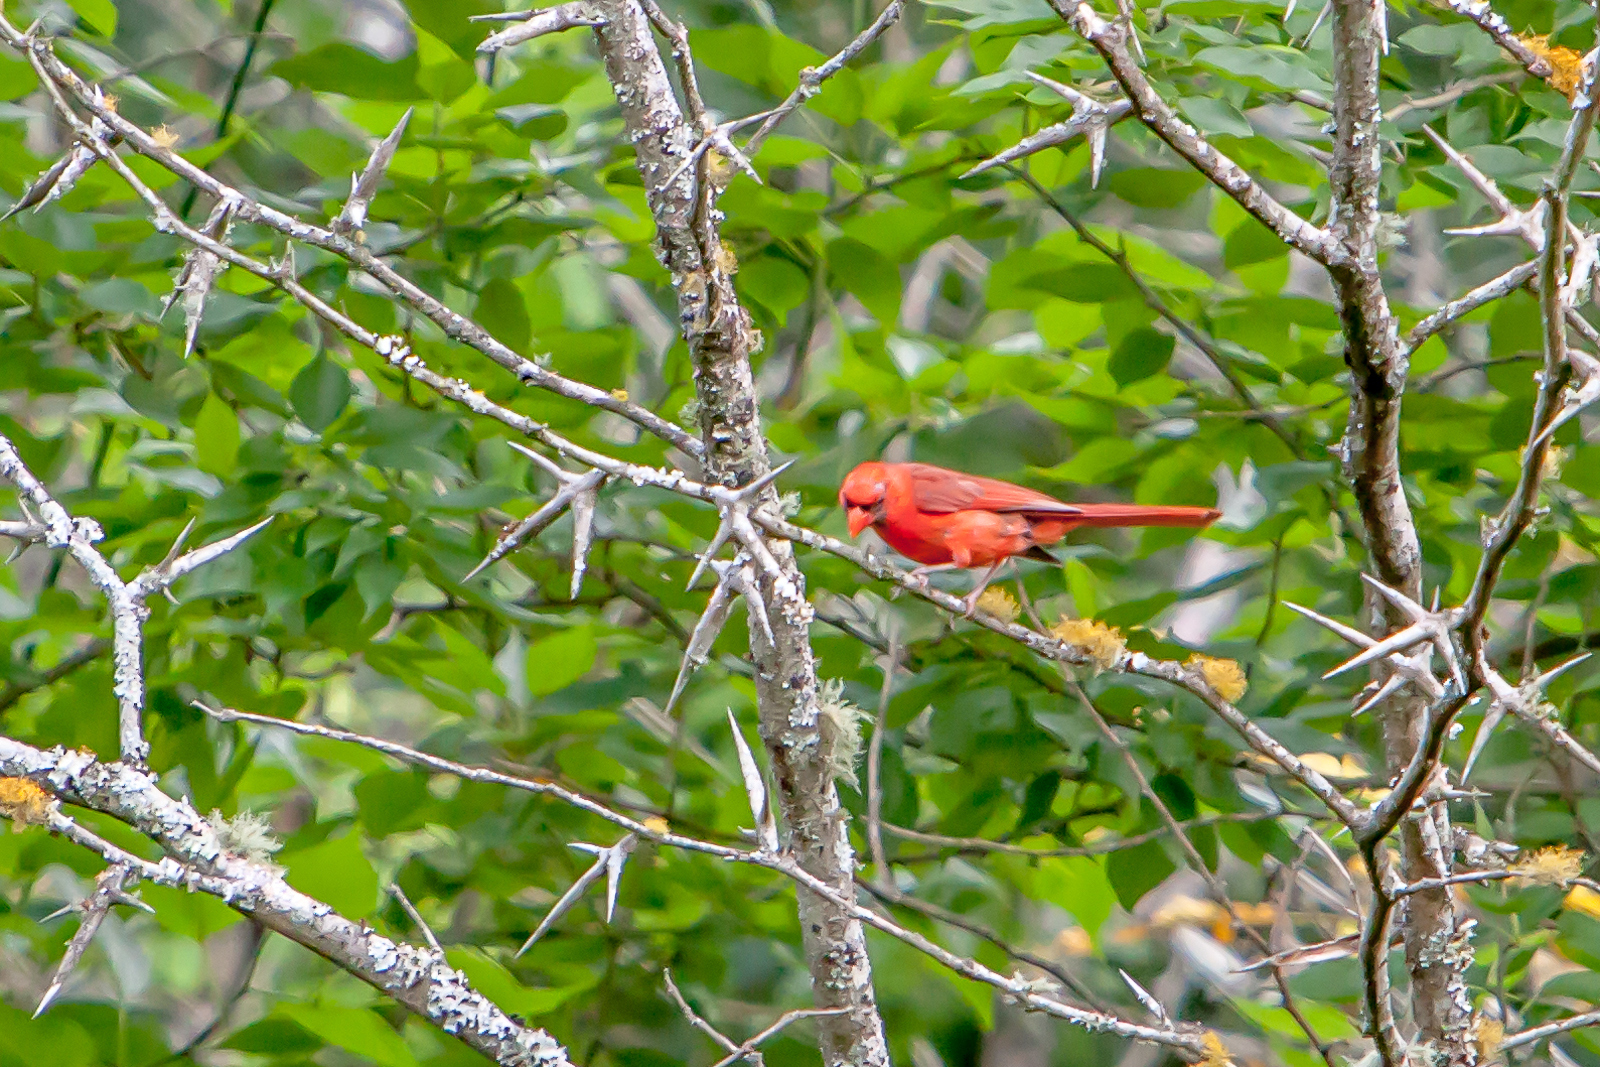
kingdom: Animalia
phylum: Chordata
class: Aves
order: Passeriformes
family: Cardinalidae
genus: Cardinalis
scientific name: Cardinalis cardinalis
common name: Northern cardinal
